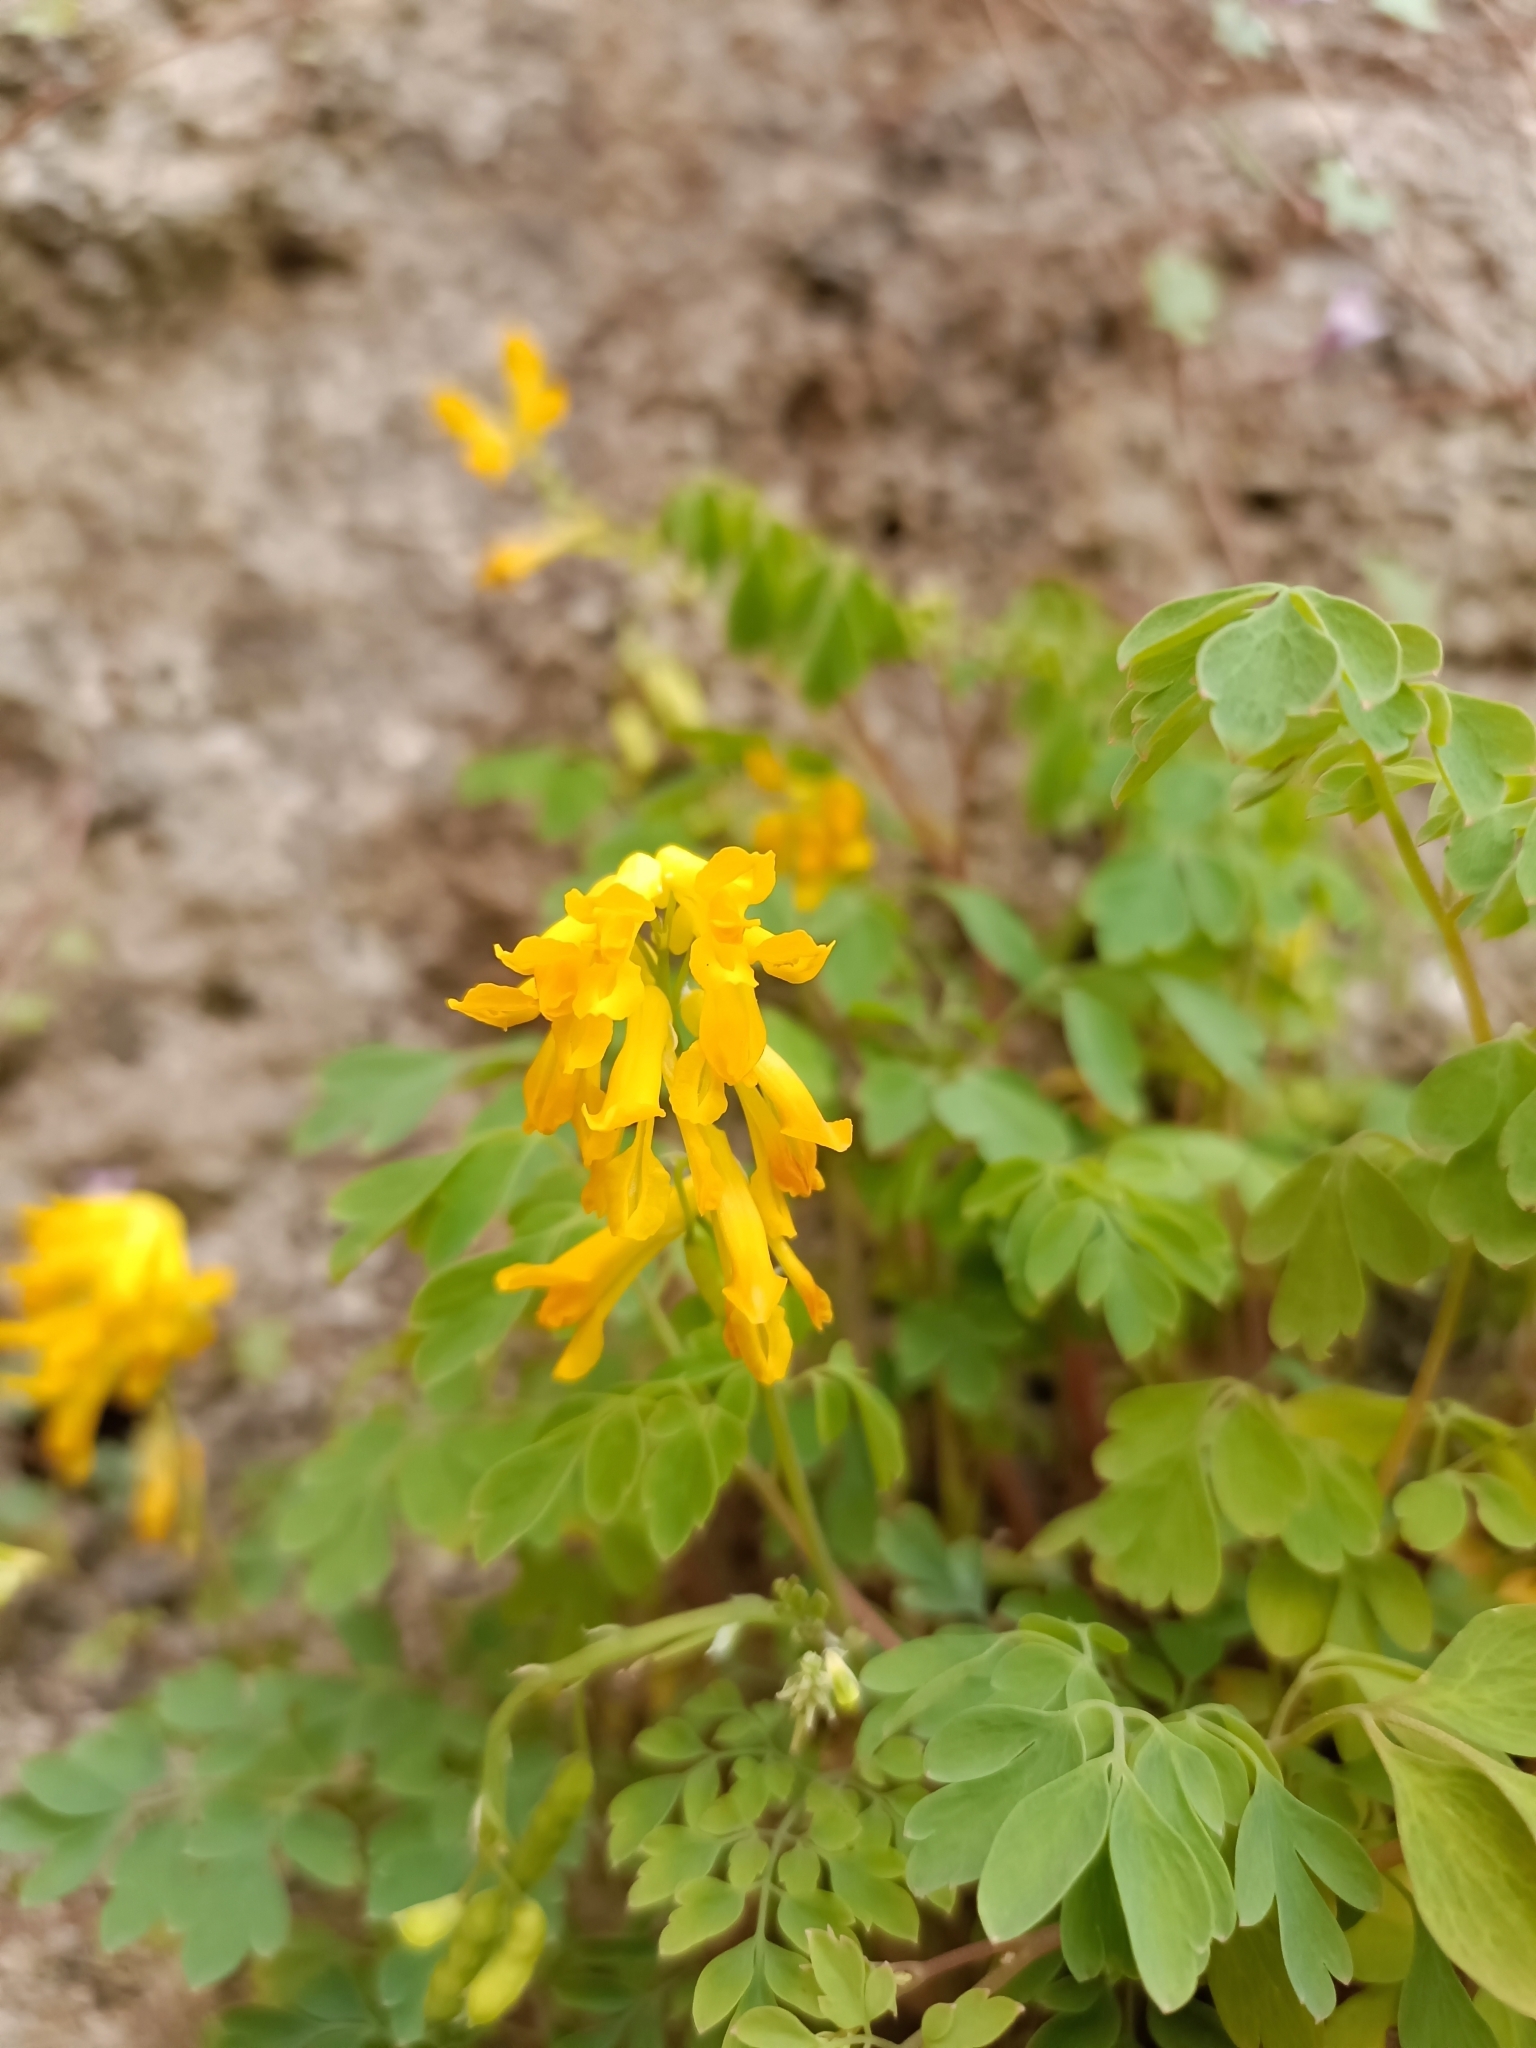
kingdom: Plantae
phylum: Tracheophyta
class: Magnoliopsida
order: Ranunculales
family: Papaveraceae
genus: Pseudofumaria
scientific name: Pseudofumaria lutea
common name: Yellow corydalis
